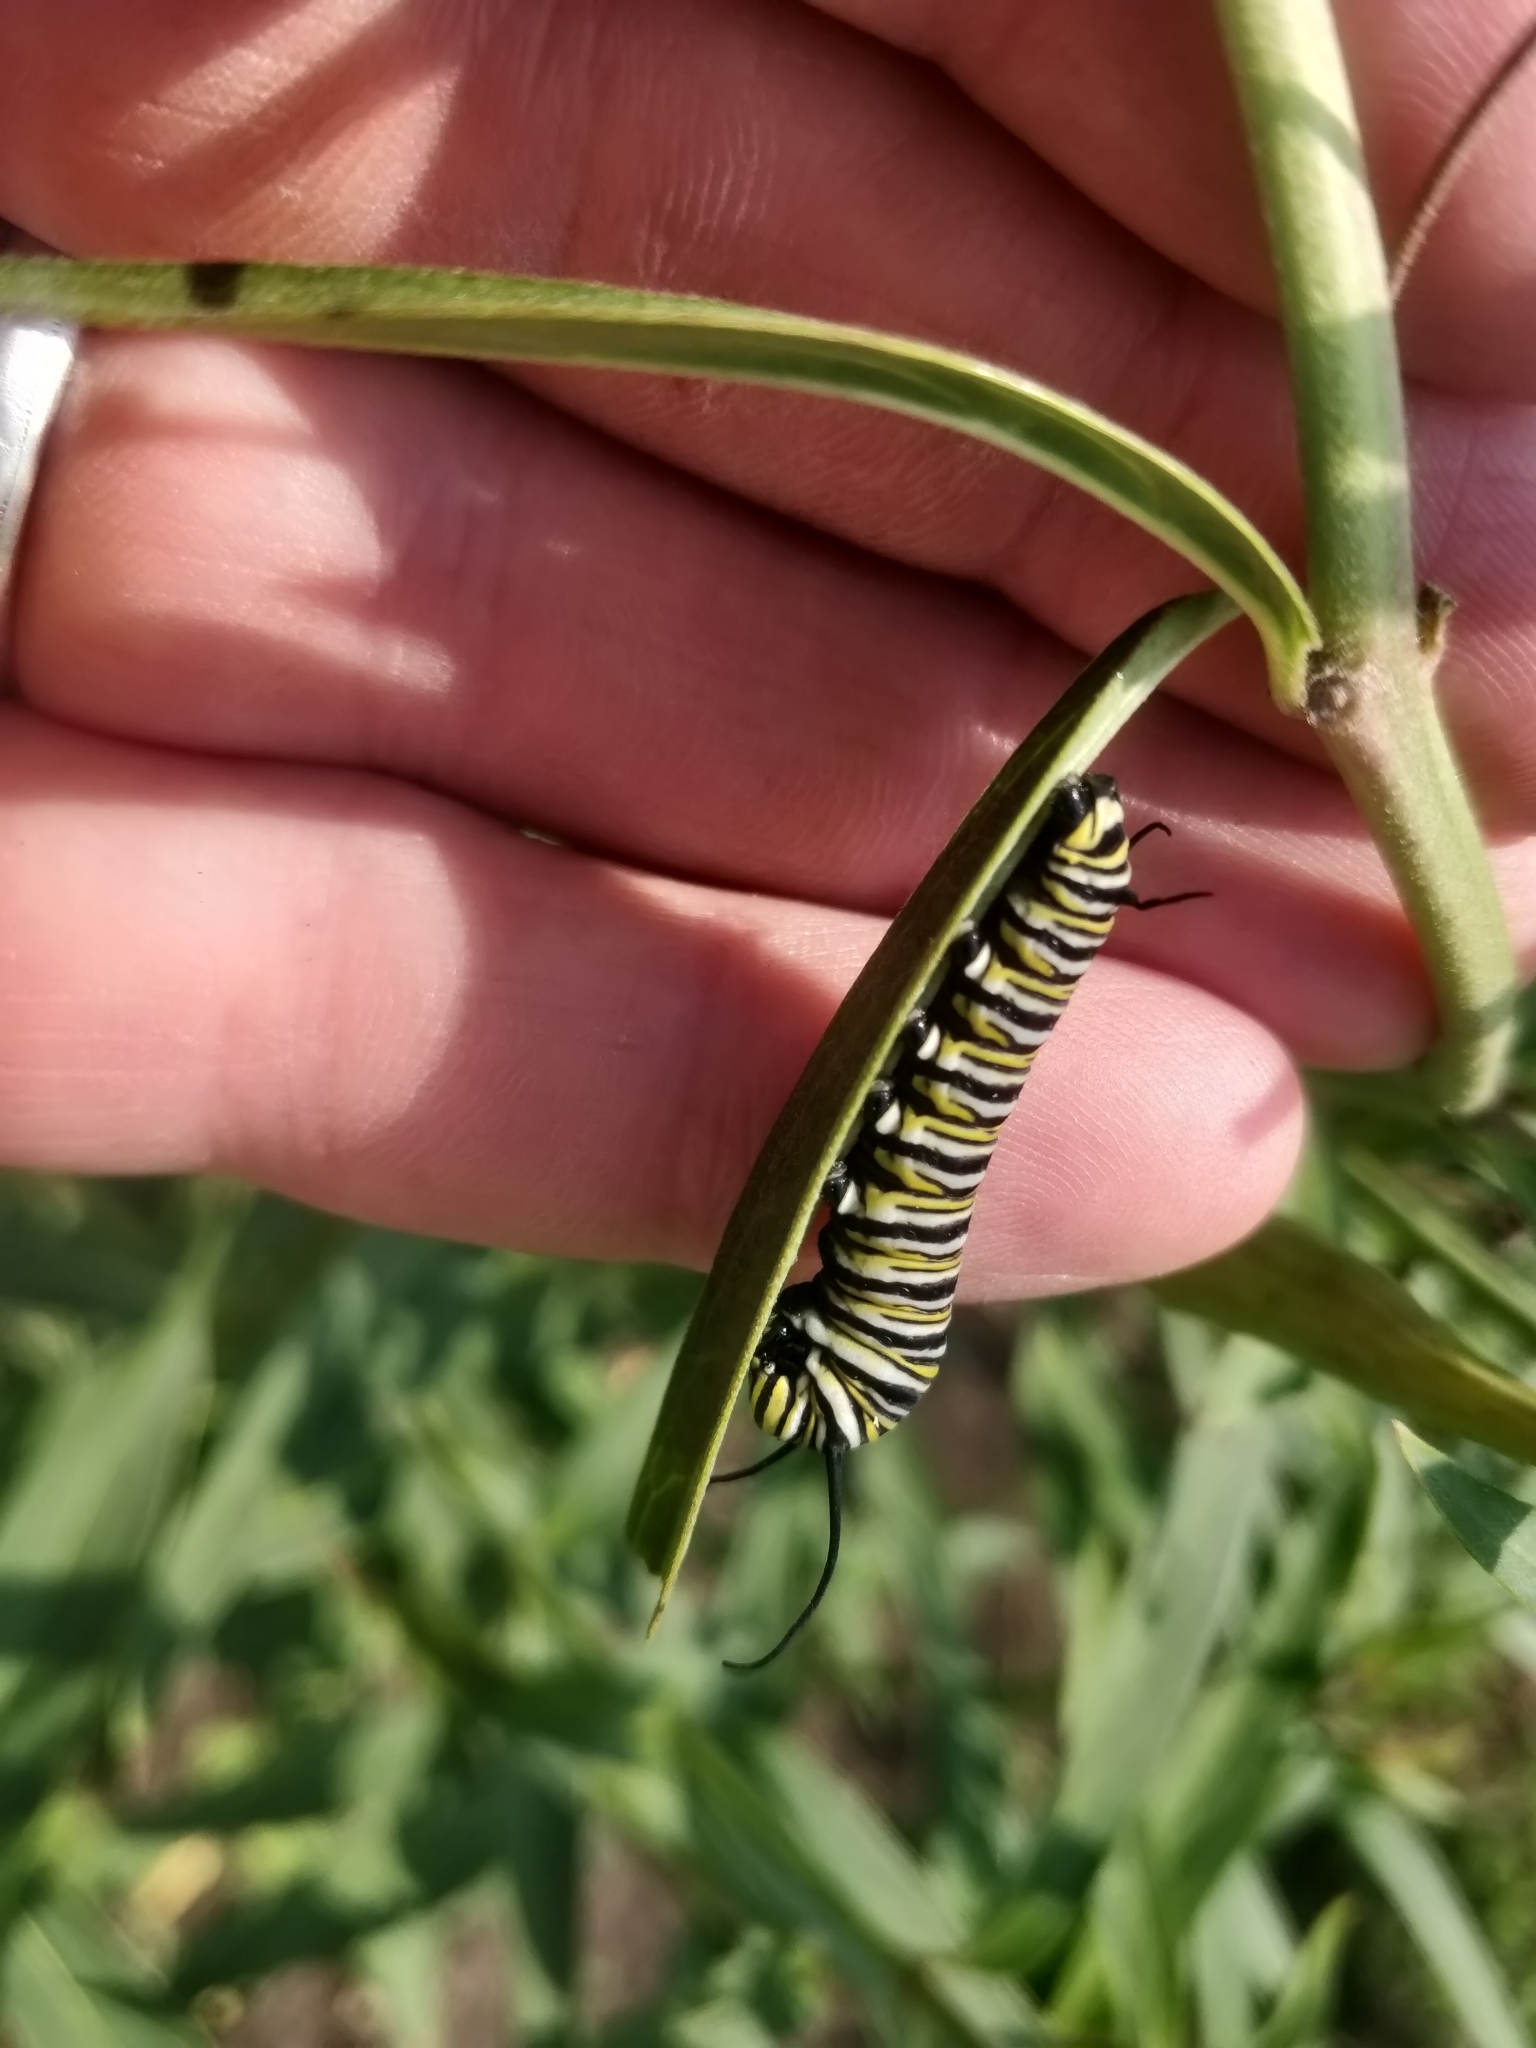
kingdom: Animalia
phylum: Arthropoda
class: Insecta
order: Lepidoptera
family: Nymphalidae
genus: Danaus
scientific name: Danaus plexippus
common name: Monarch
